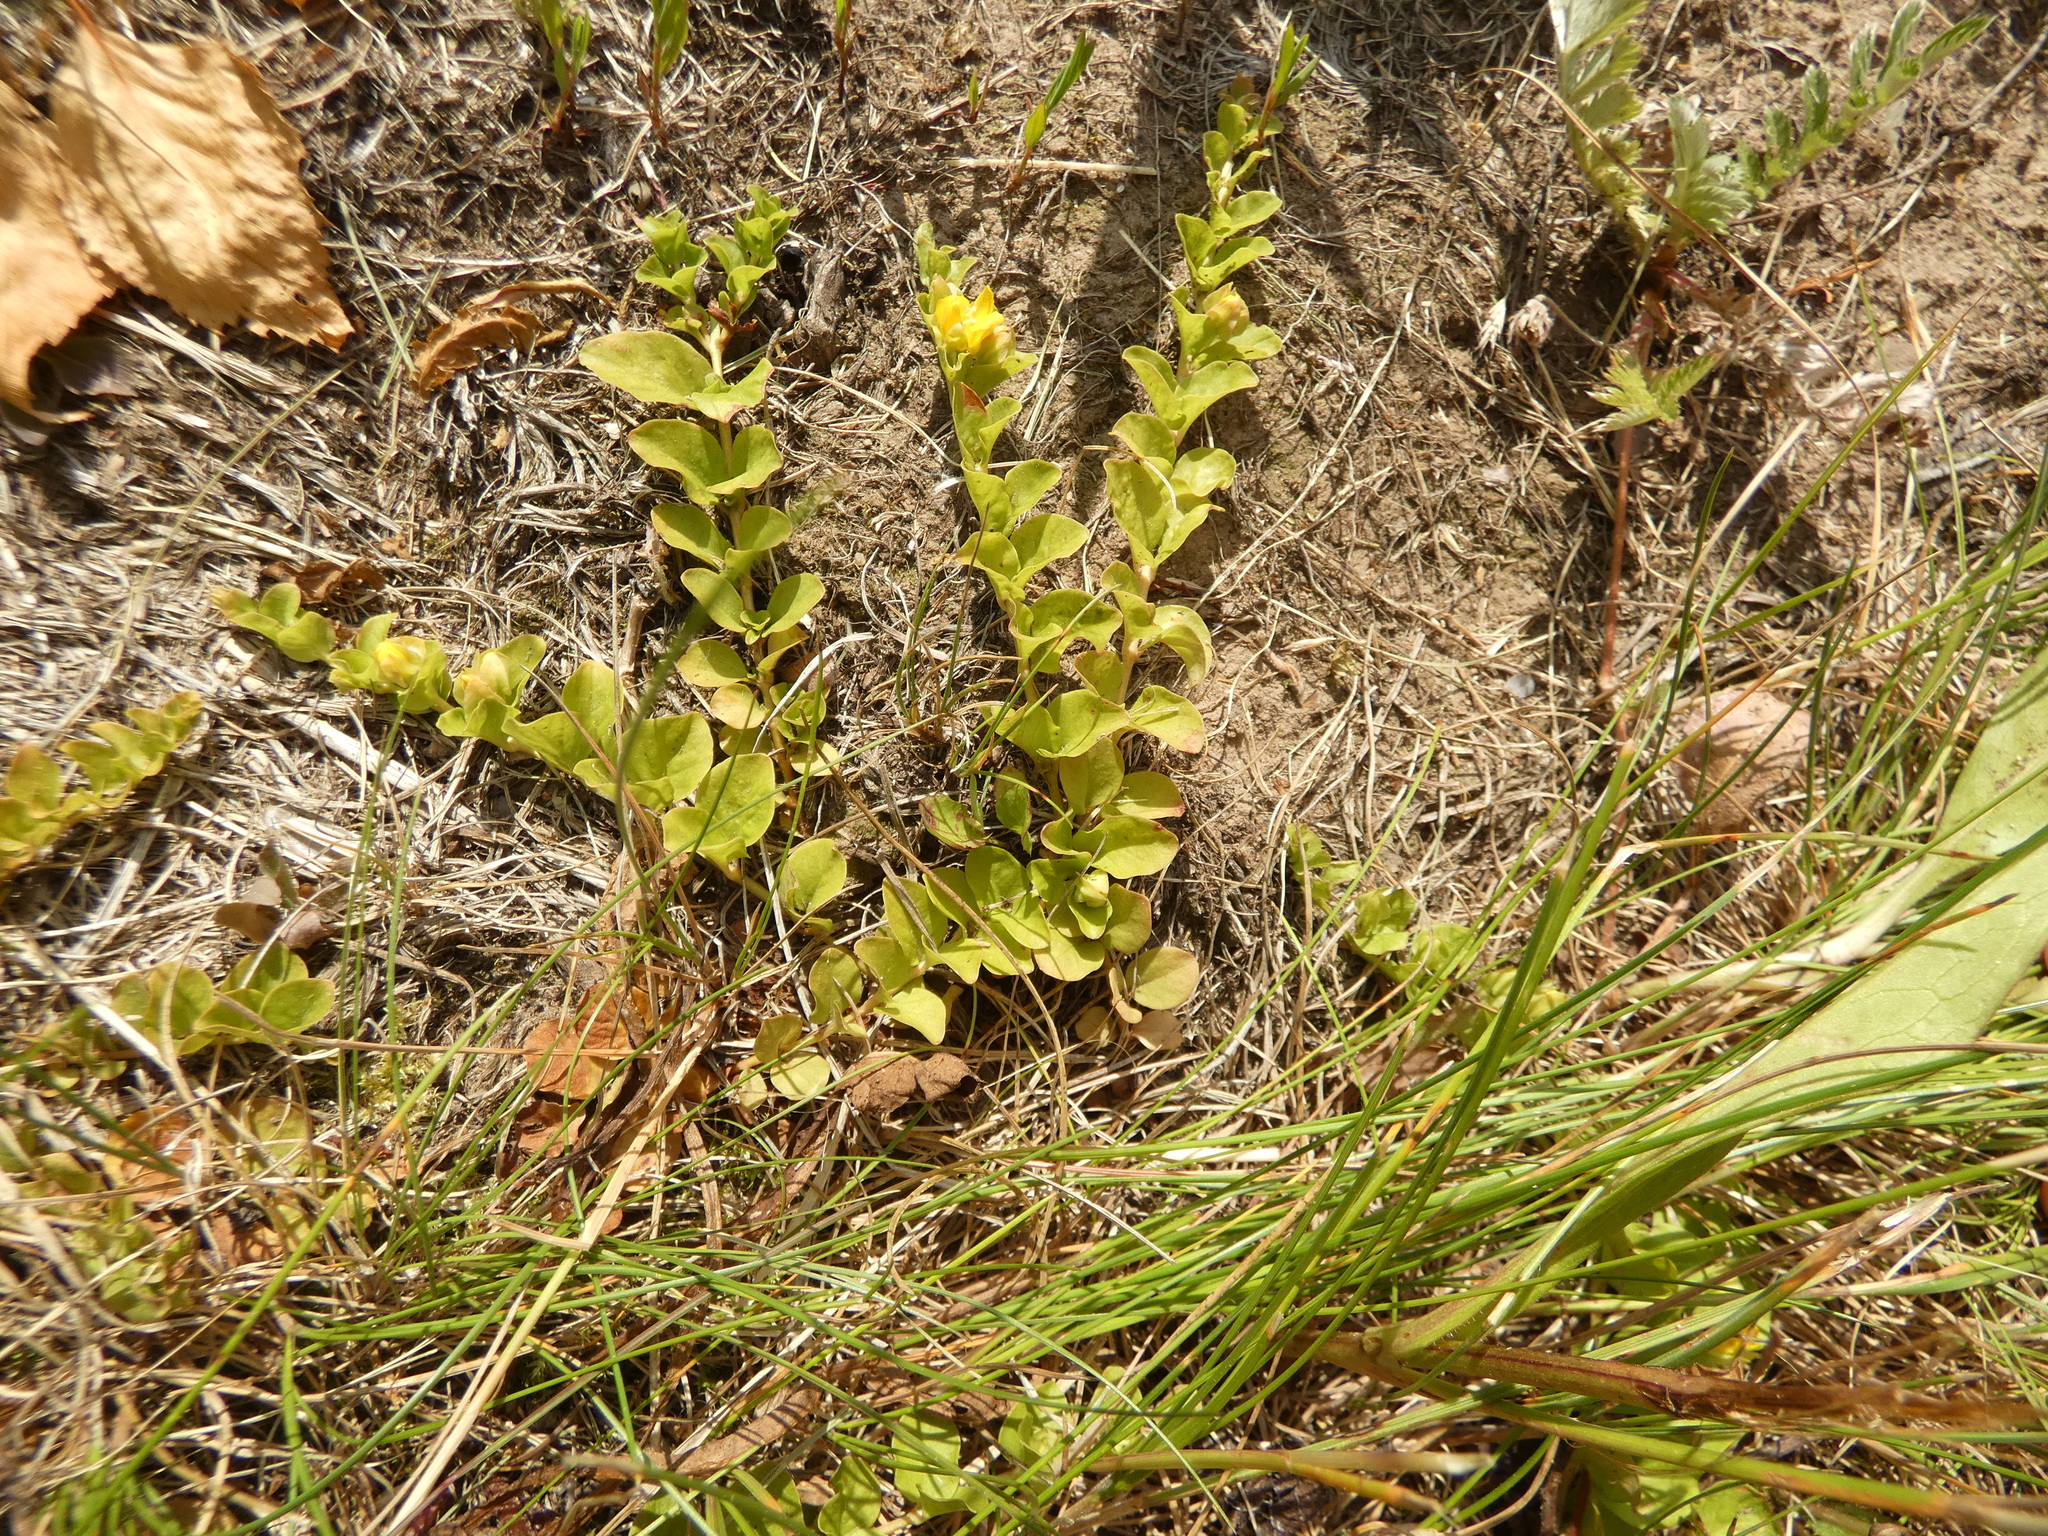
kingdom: Plantae
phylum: Tracheophyta
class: Magnoliopsida
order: Ericales
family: Primulaceae
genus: Lysimachia
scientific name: Lysimachia nummularia
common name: Moneywort
